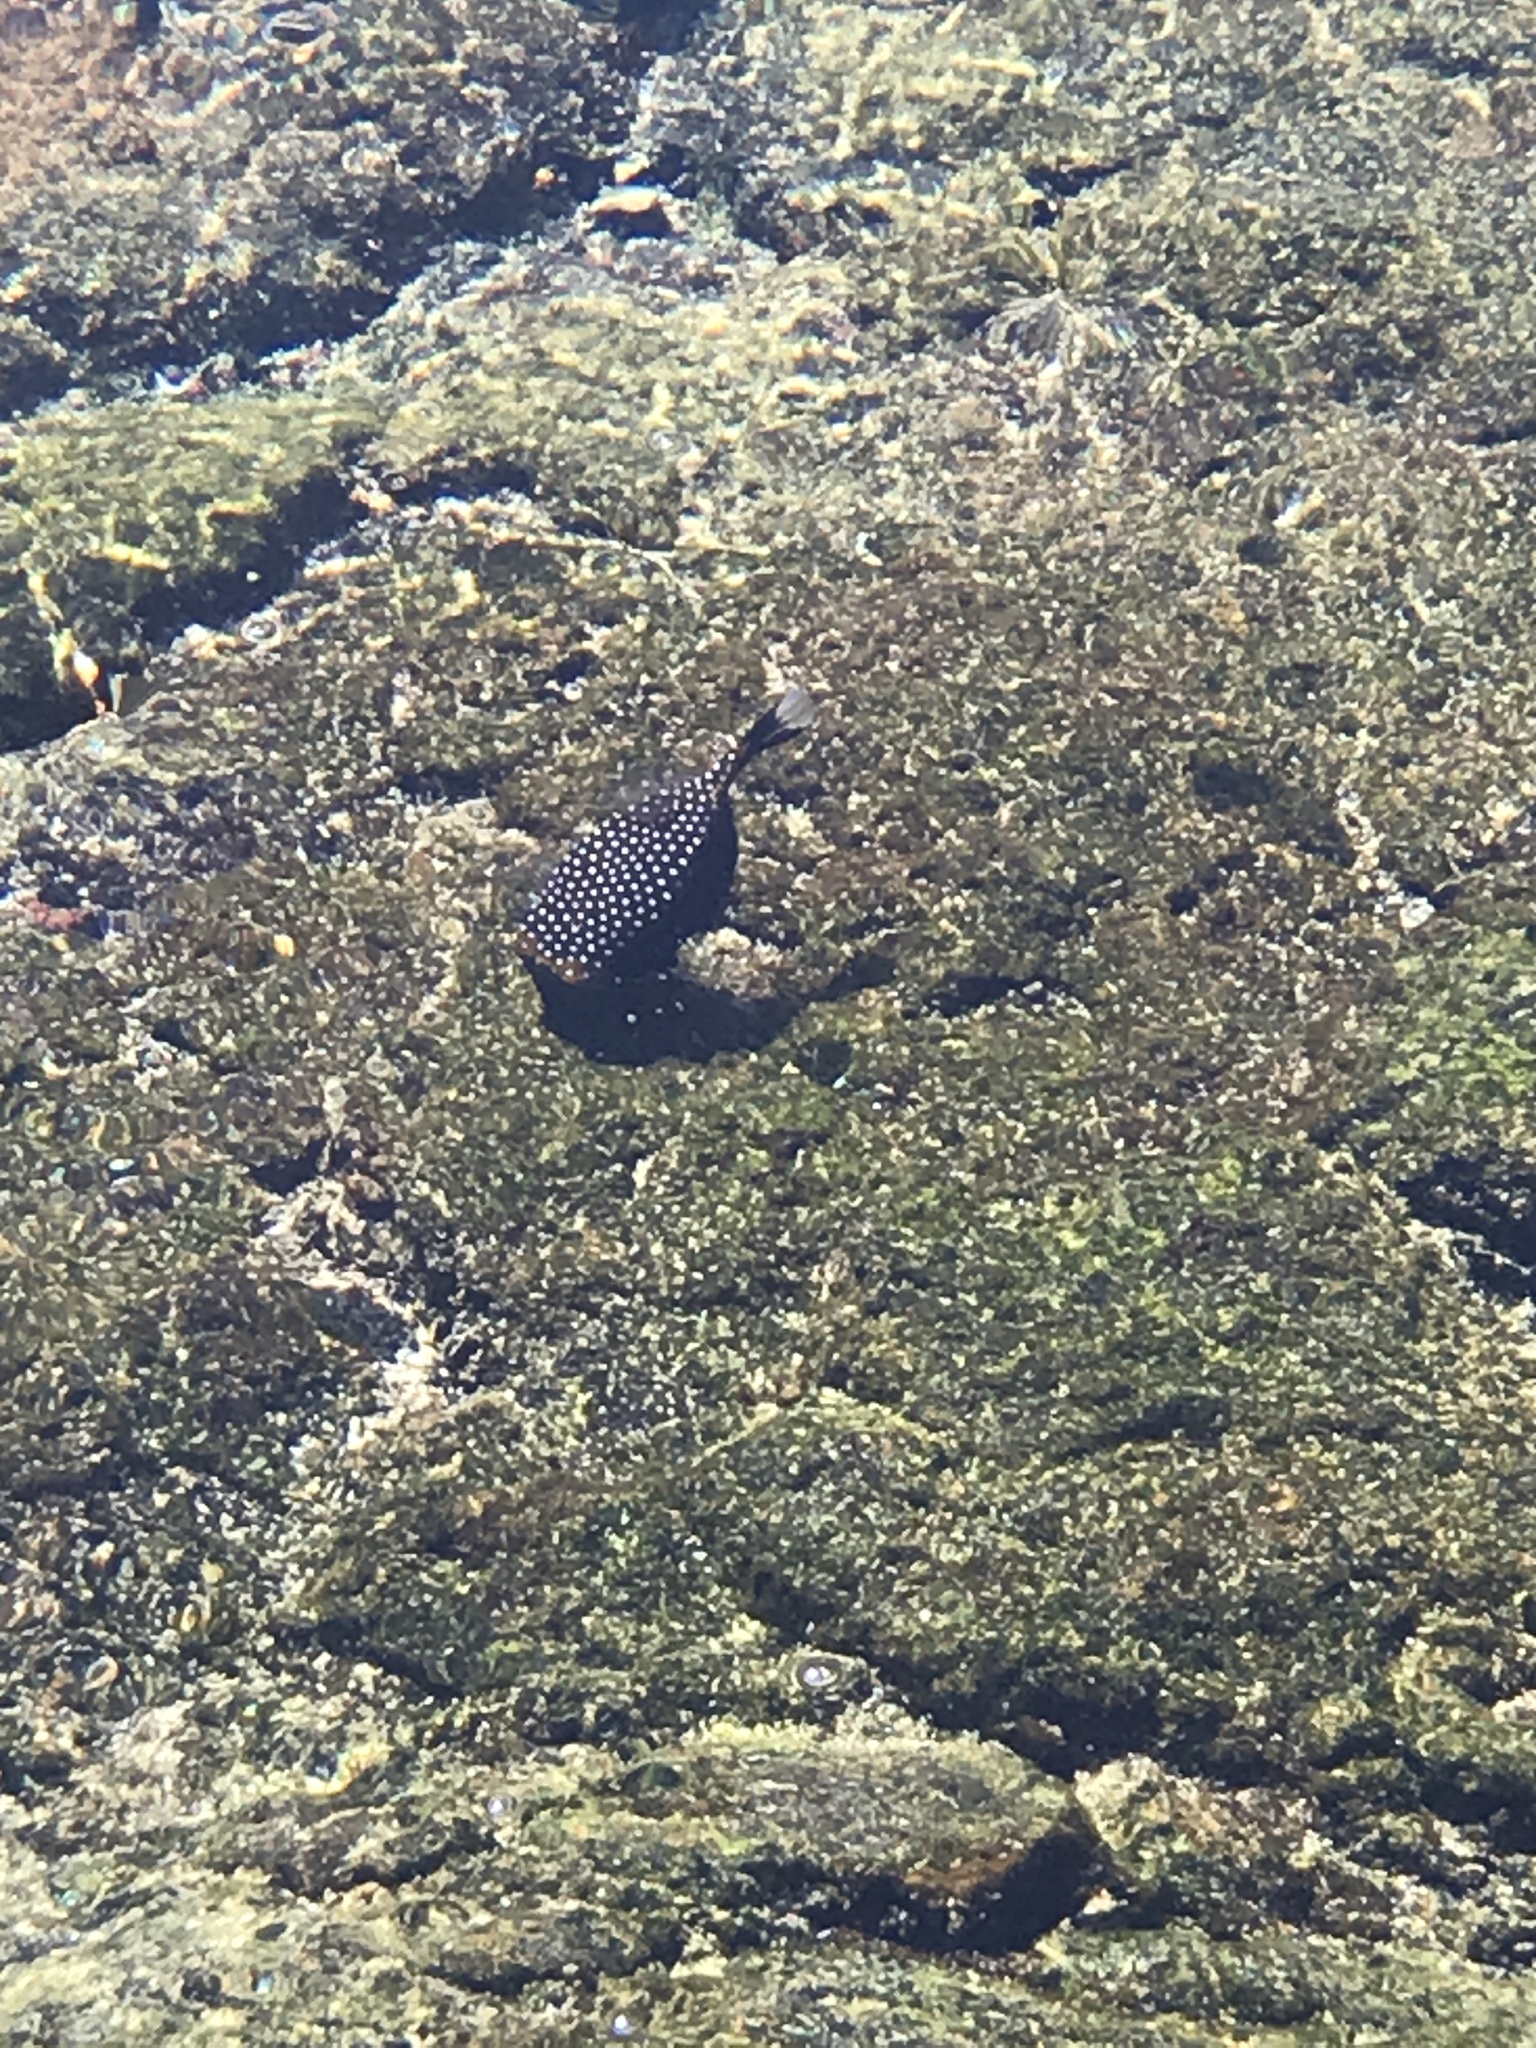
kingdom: Animalia
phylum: Chordata
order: Tetraodontiformes
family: Ostraciidae
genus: Ostracion
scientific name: Ostracion meleagris
